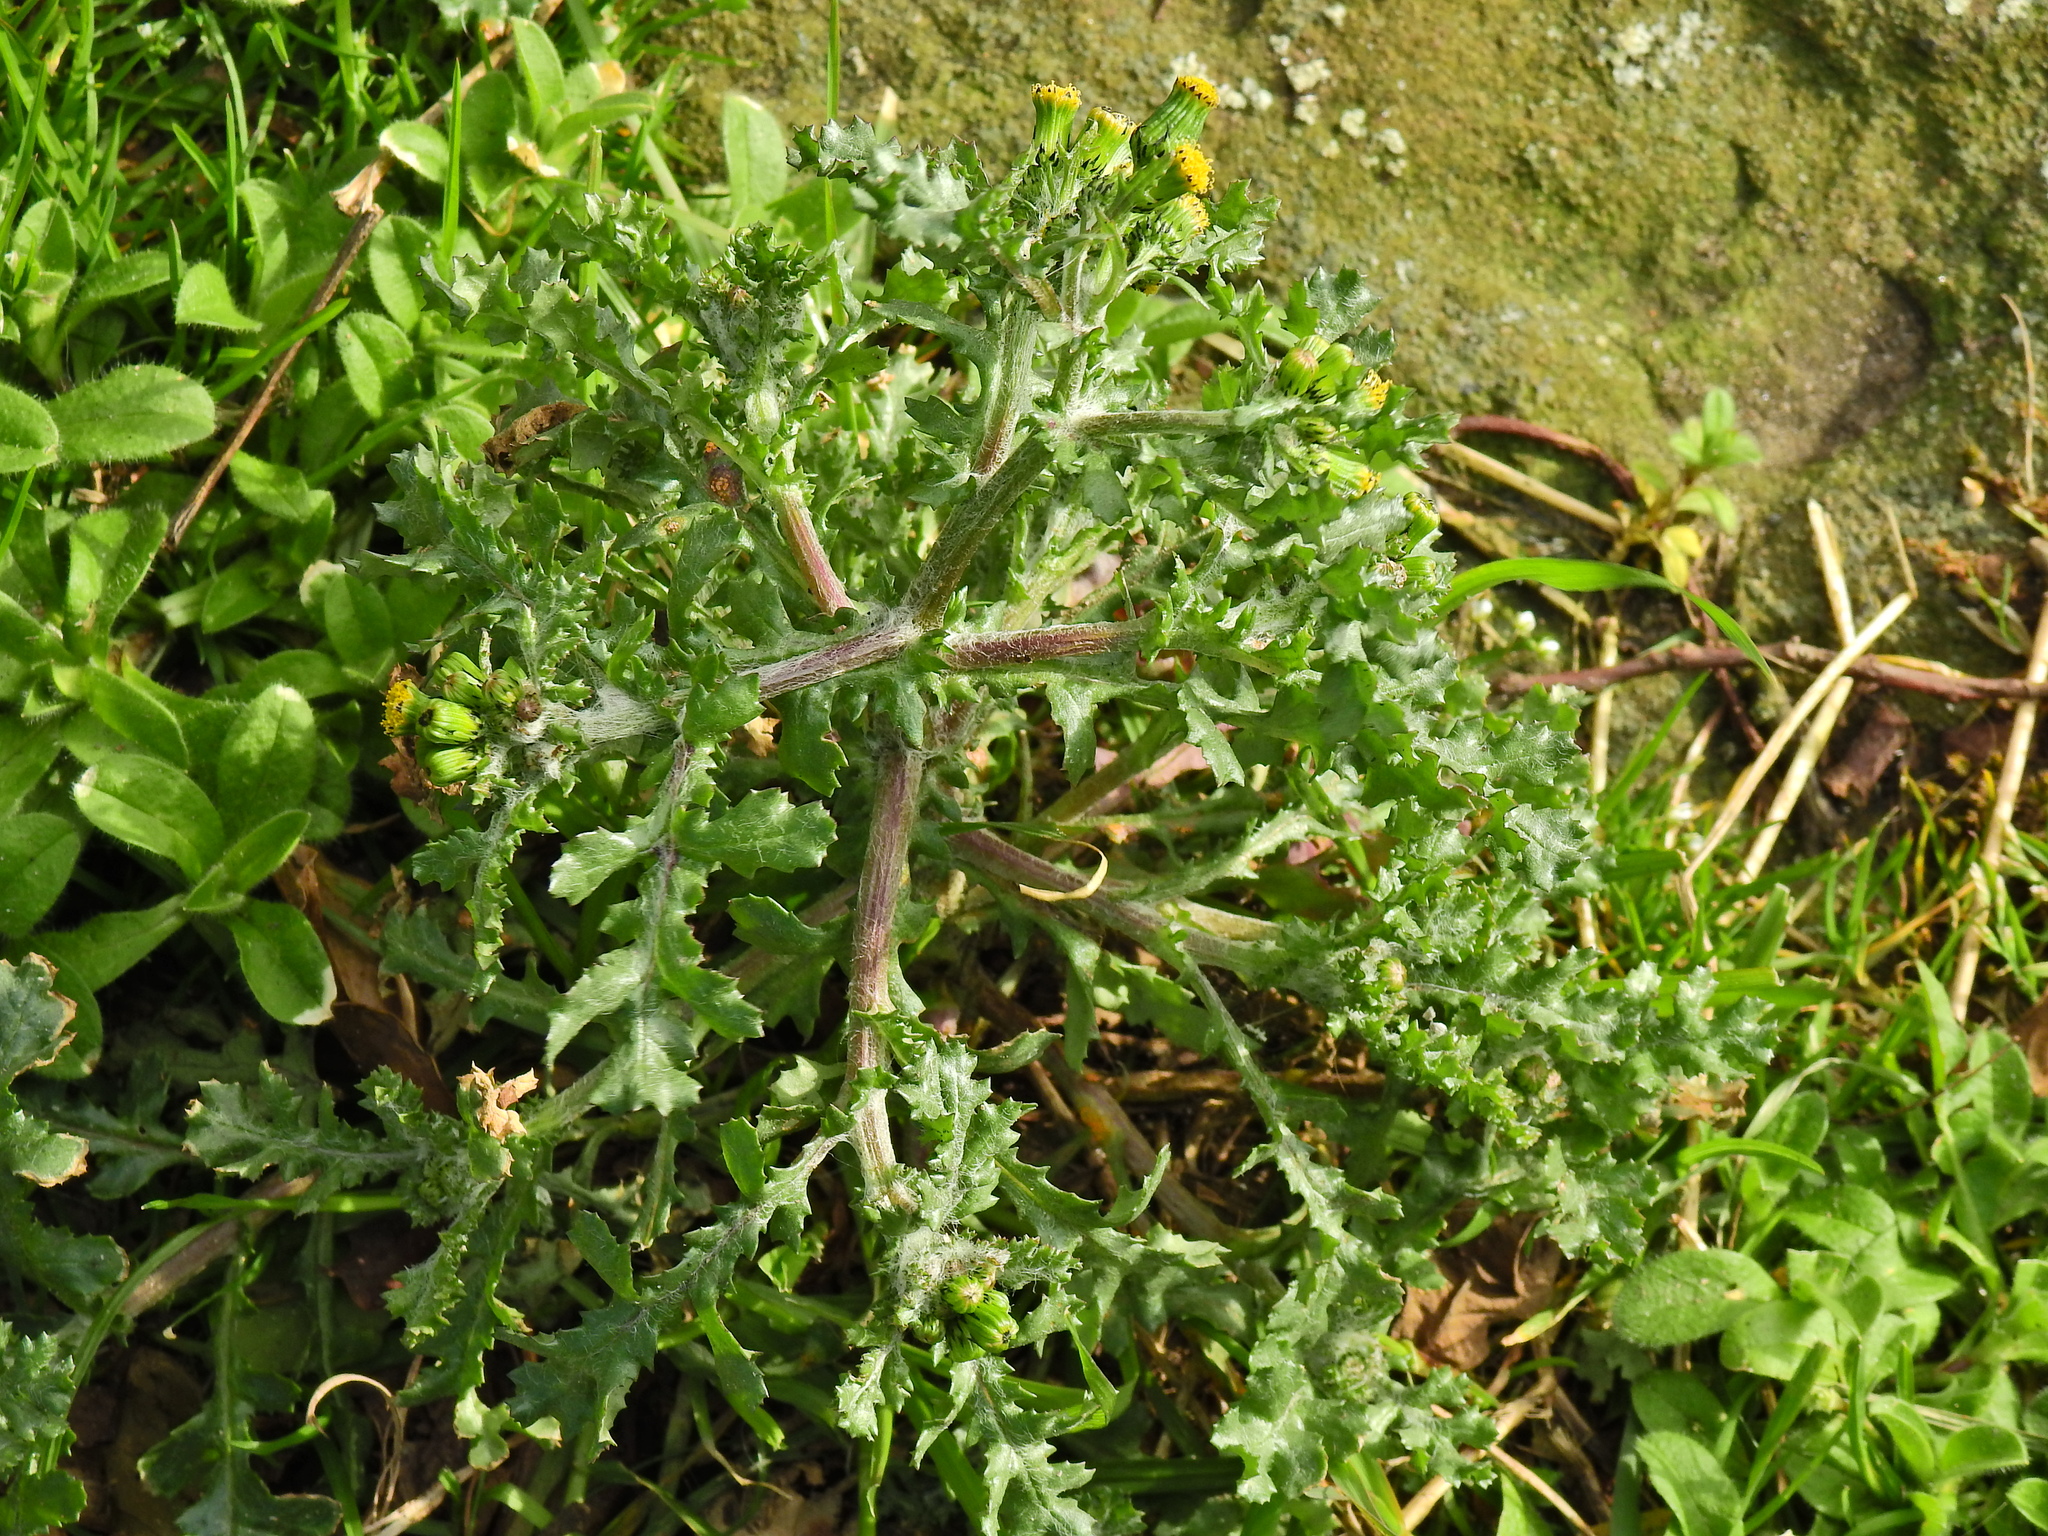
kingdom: Plantae
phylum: Tracheophyta
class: Magnoliopsida
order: Asterales
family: Asteraceae
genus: Senecio
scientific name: Senecio vulgaris
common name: Old-man-in-the-spring
